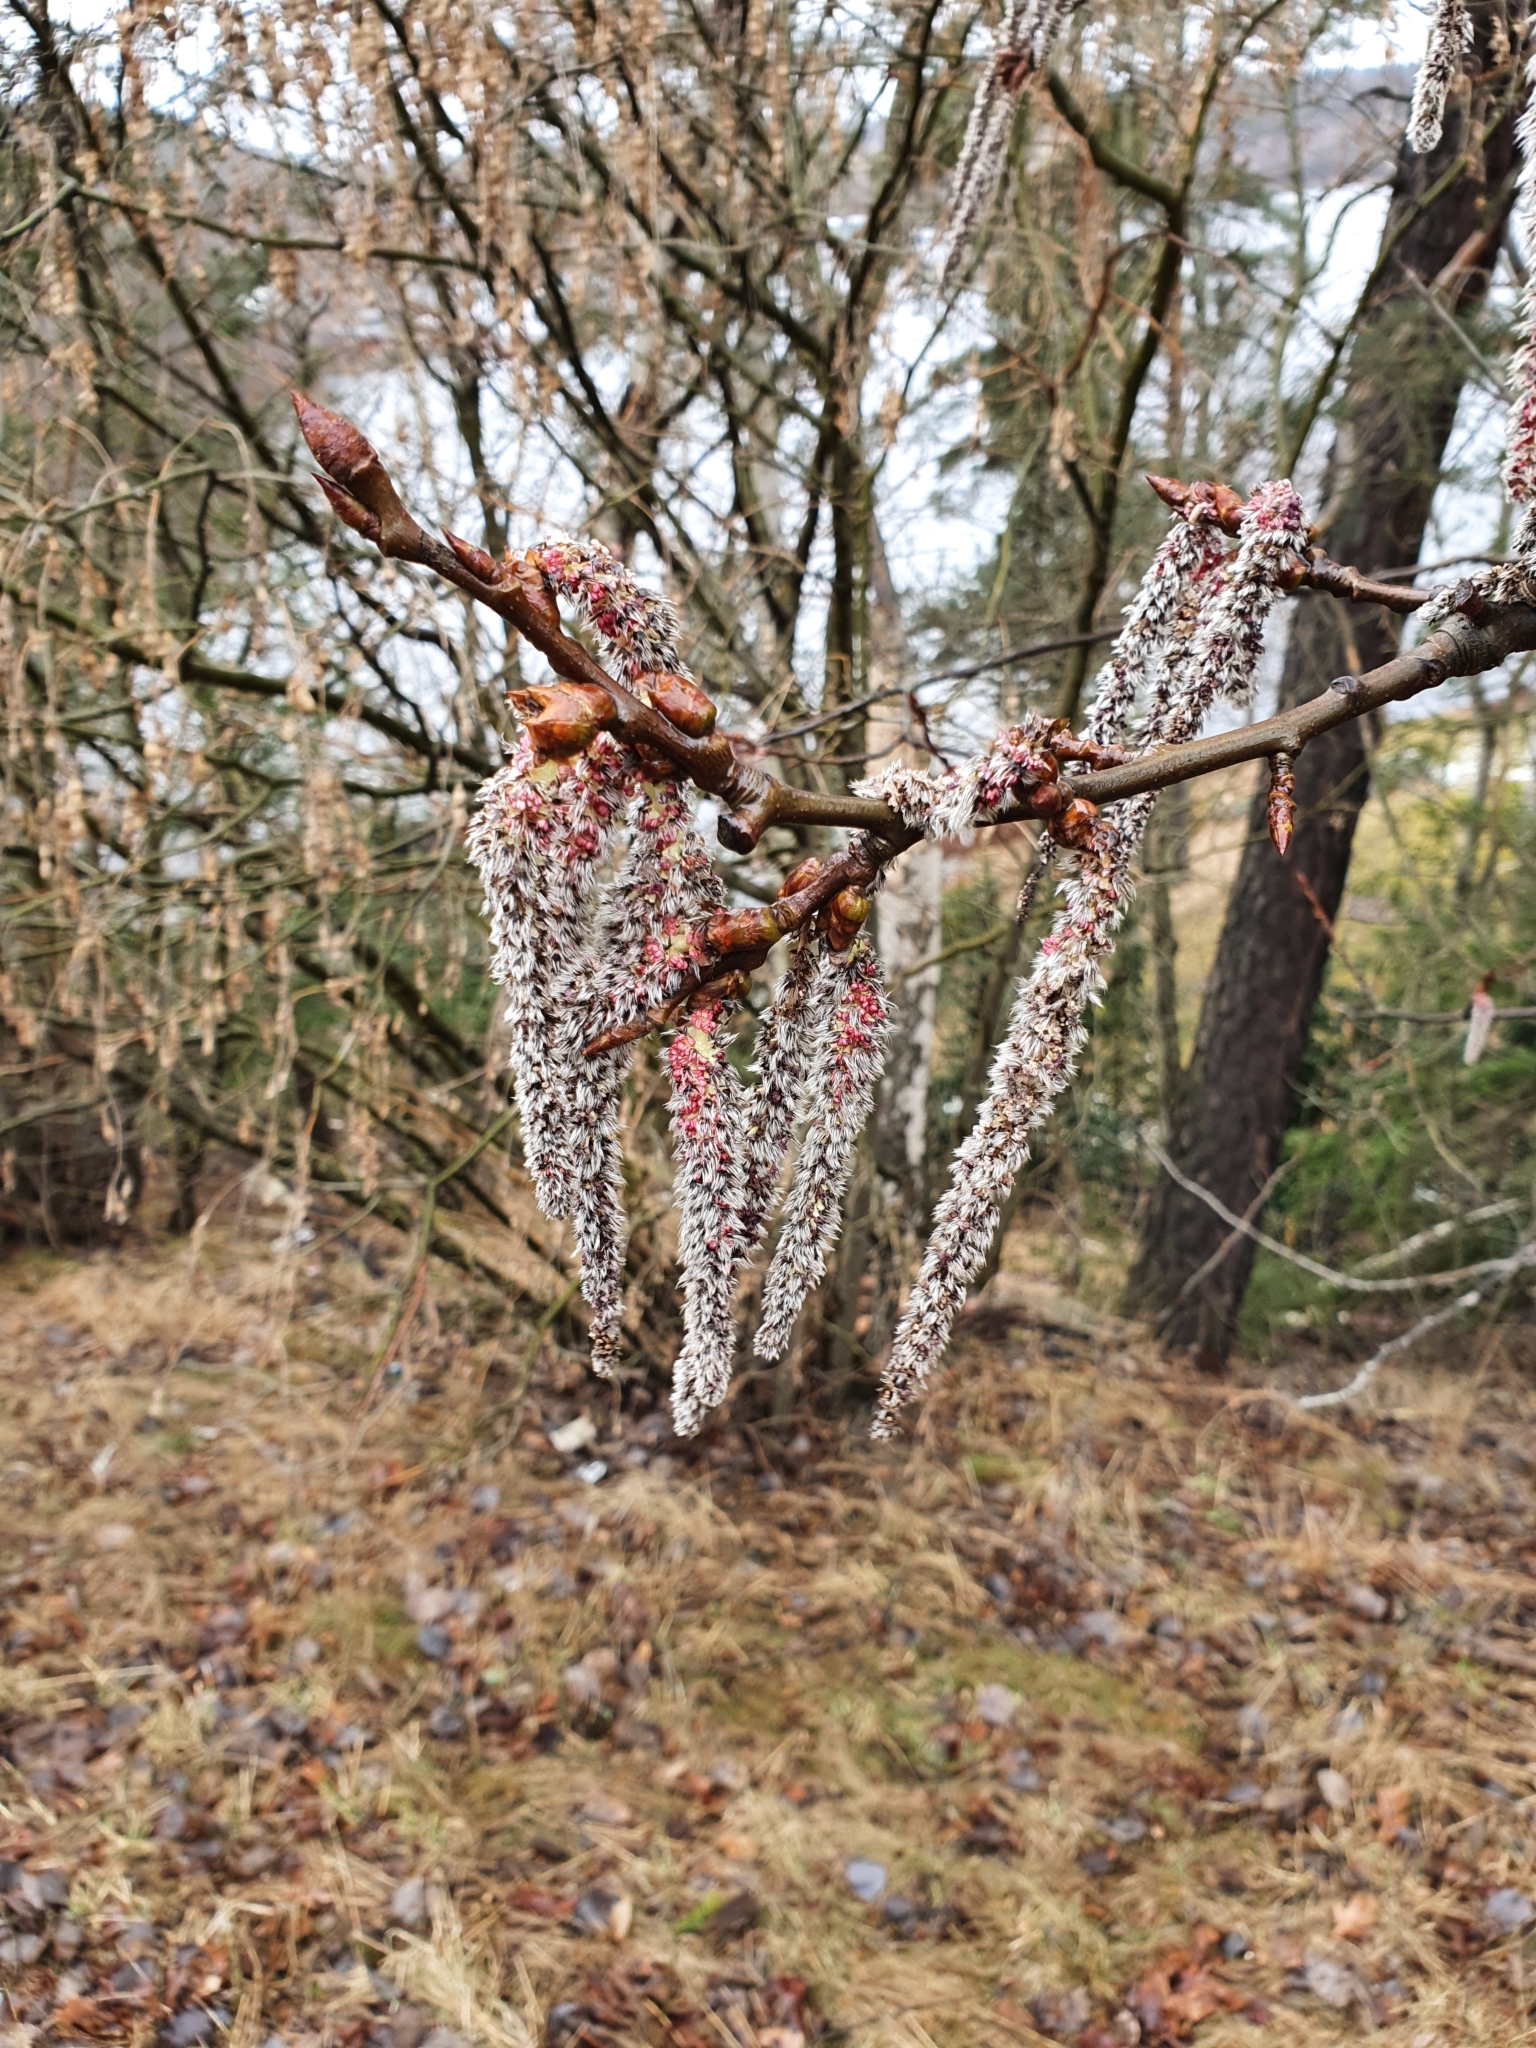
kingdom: Plantae
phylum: Tracheophyta
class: Magnoliopsida
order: Malpighiales
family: Salicaceae
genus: Populus
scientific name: Populus tremula
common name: European aspen
